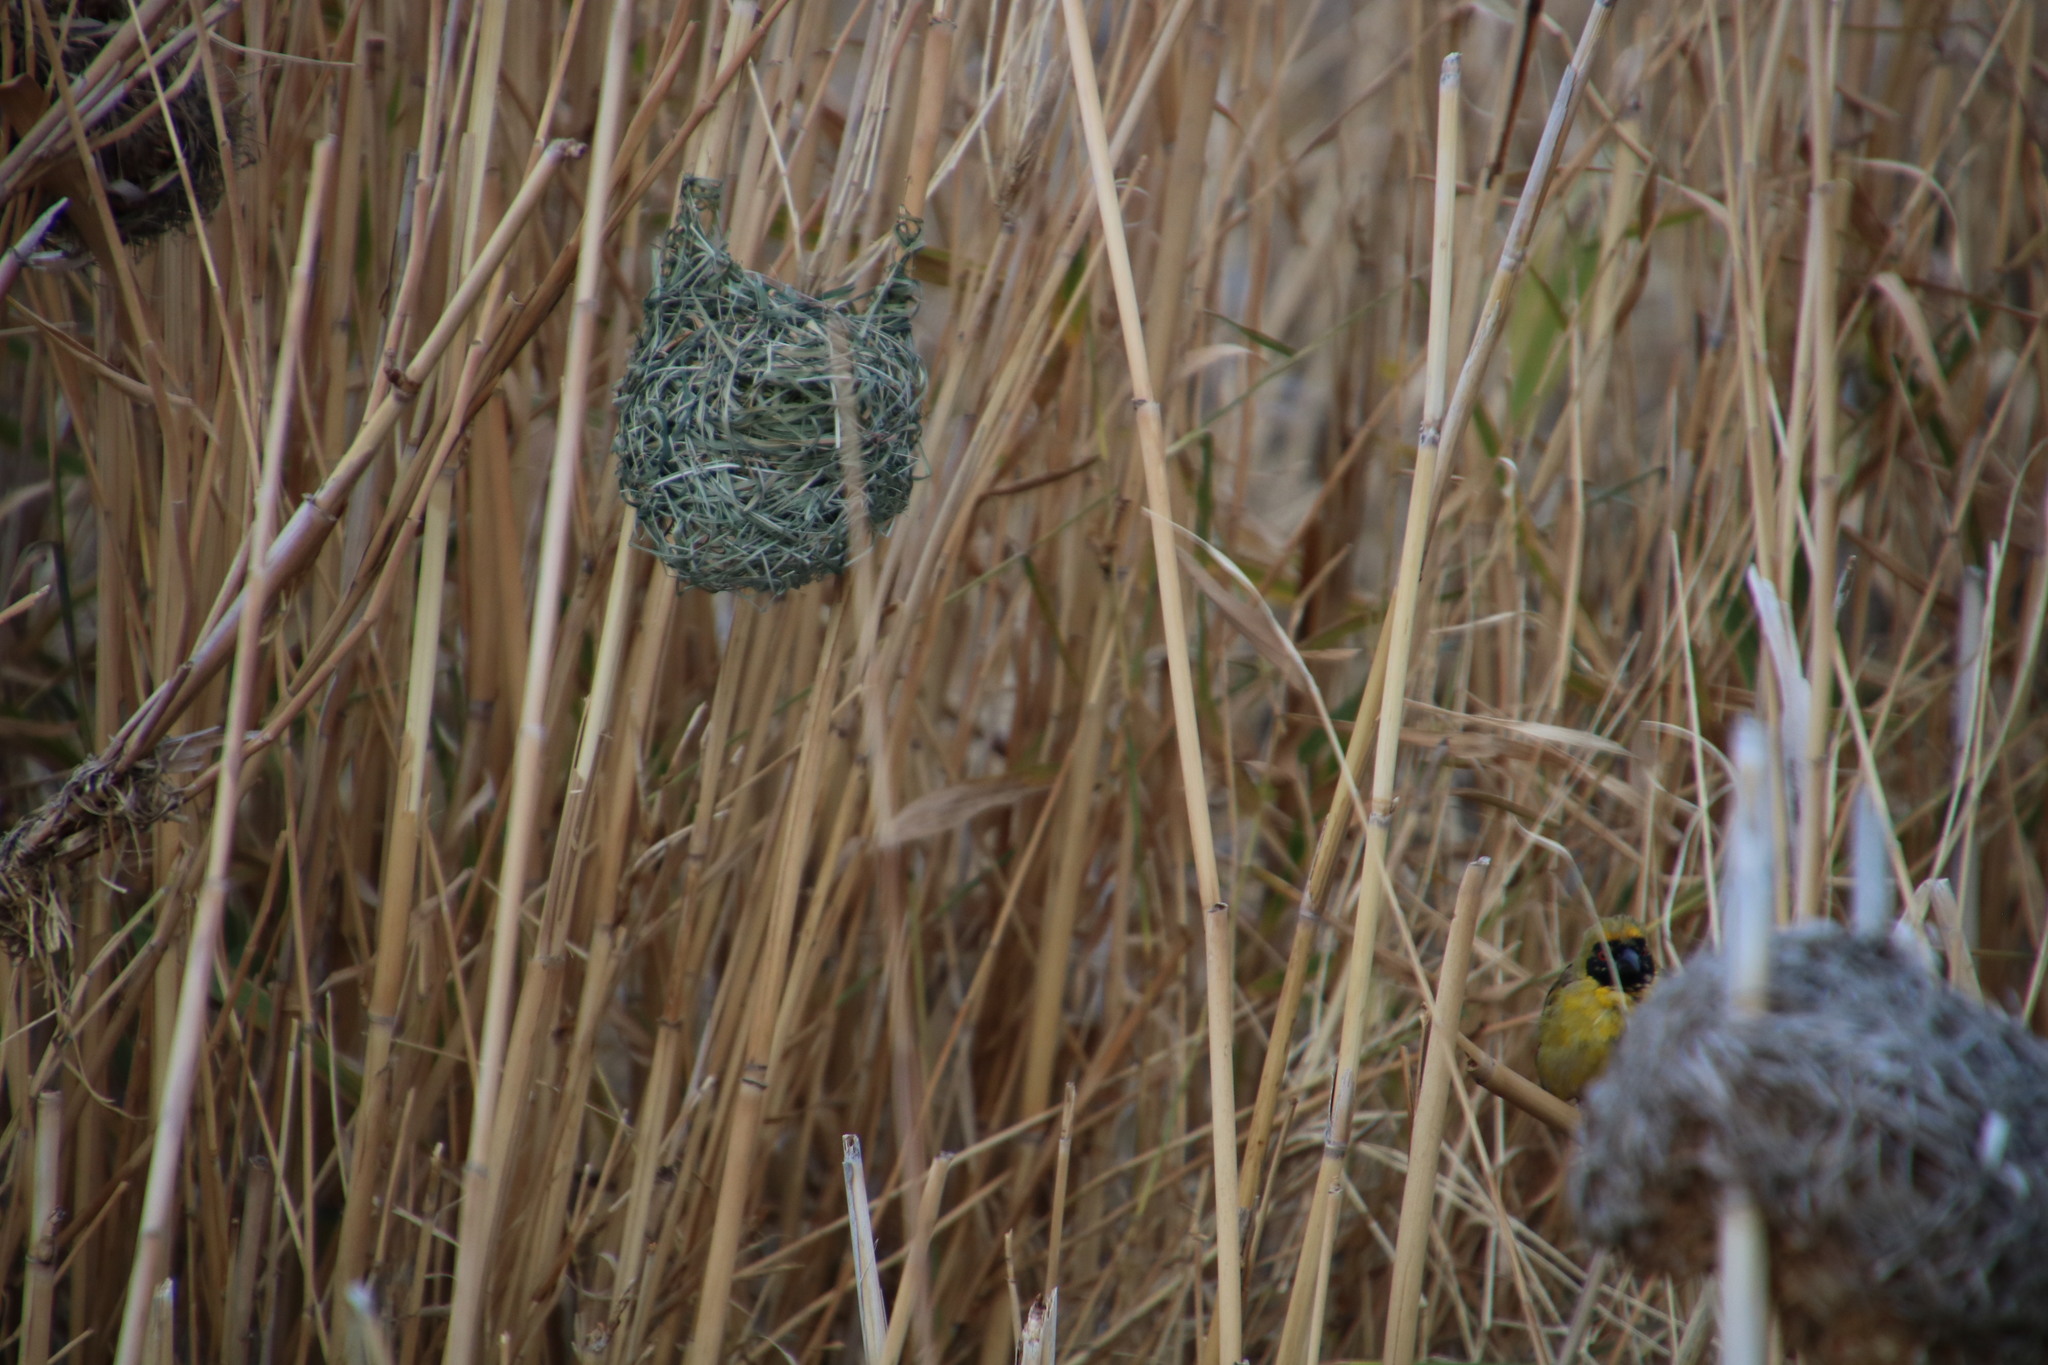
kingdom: Animalia
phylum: Chordata
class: Aves
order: Passeriformes
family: Ploceidae
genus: Ploceus
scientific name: Ploceus velatus
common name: Southern masked weaver
